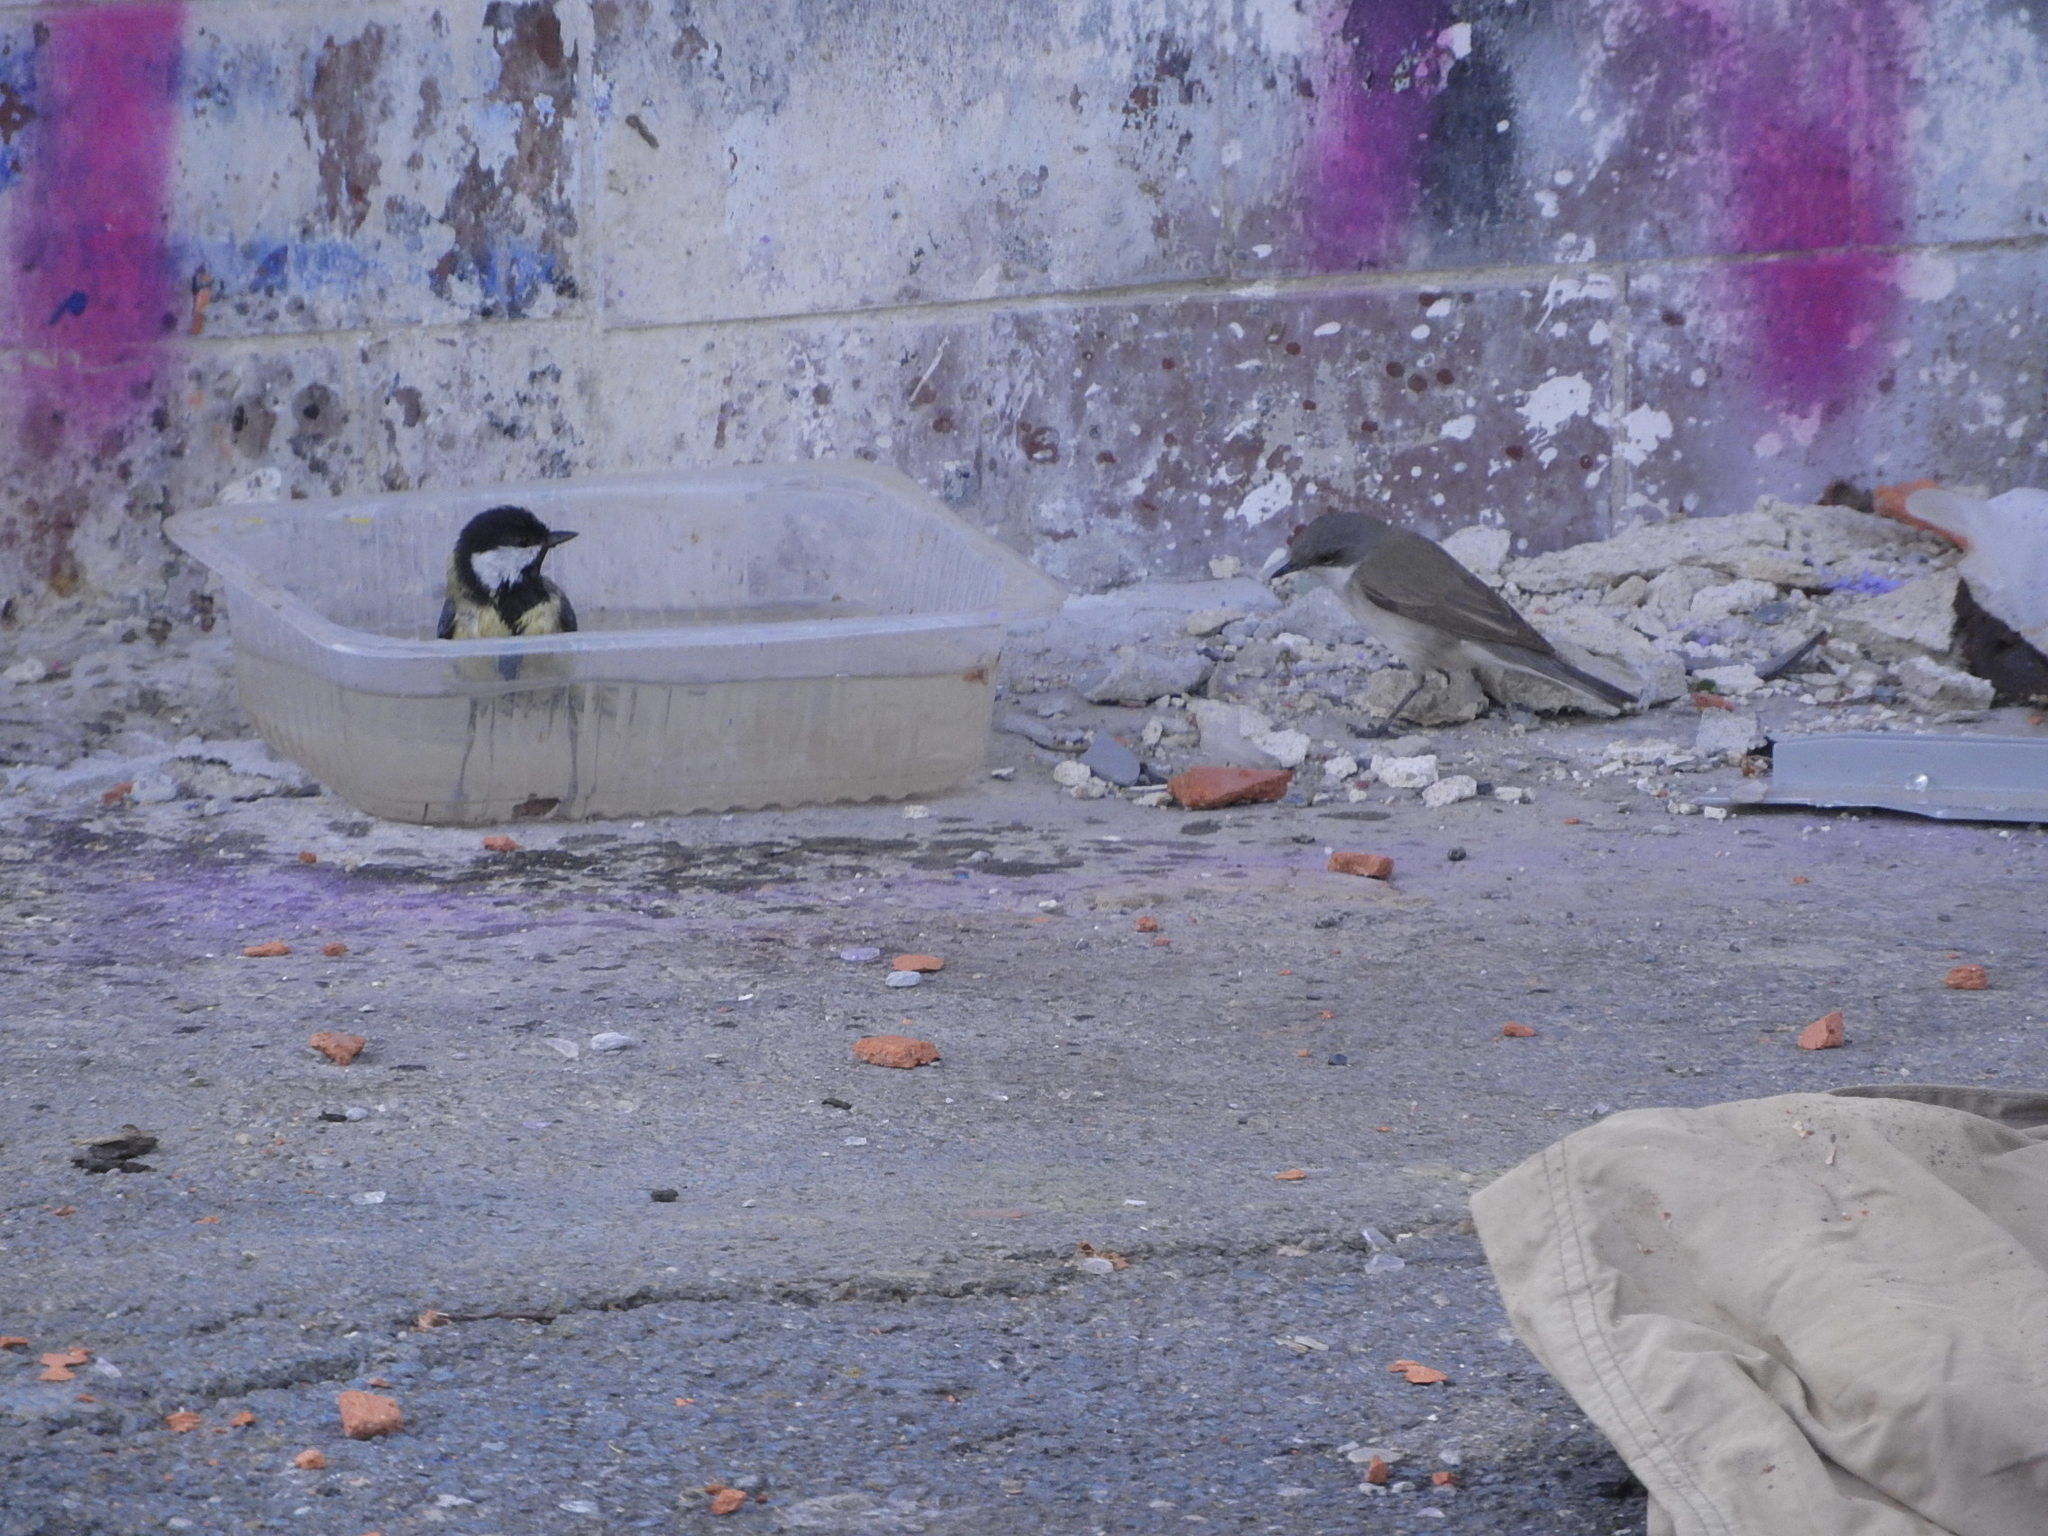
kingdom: Animalia
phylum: Chordata
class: Aves
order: Passeriformes
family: Sylviidae
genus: Sylvia
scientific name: Sylvia curruca
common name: Lesser whitethroat
